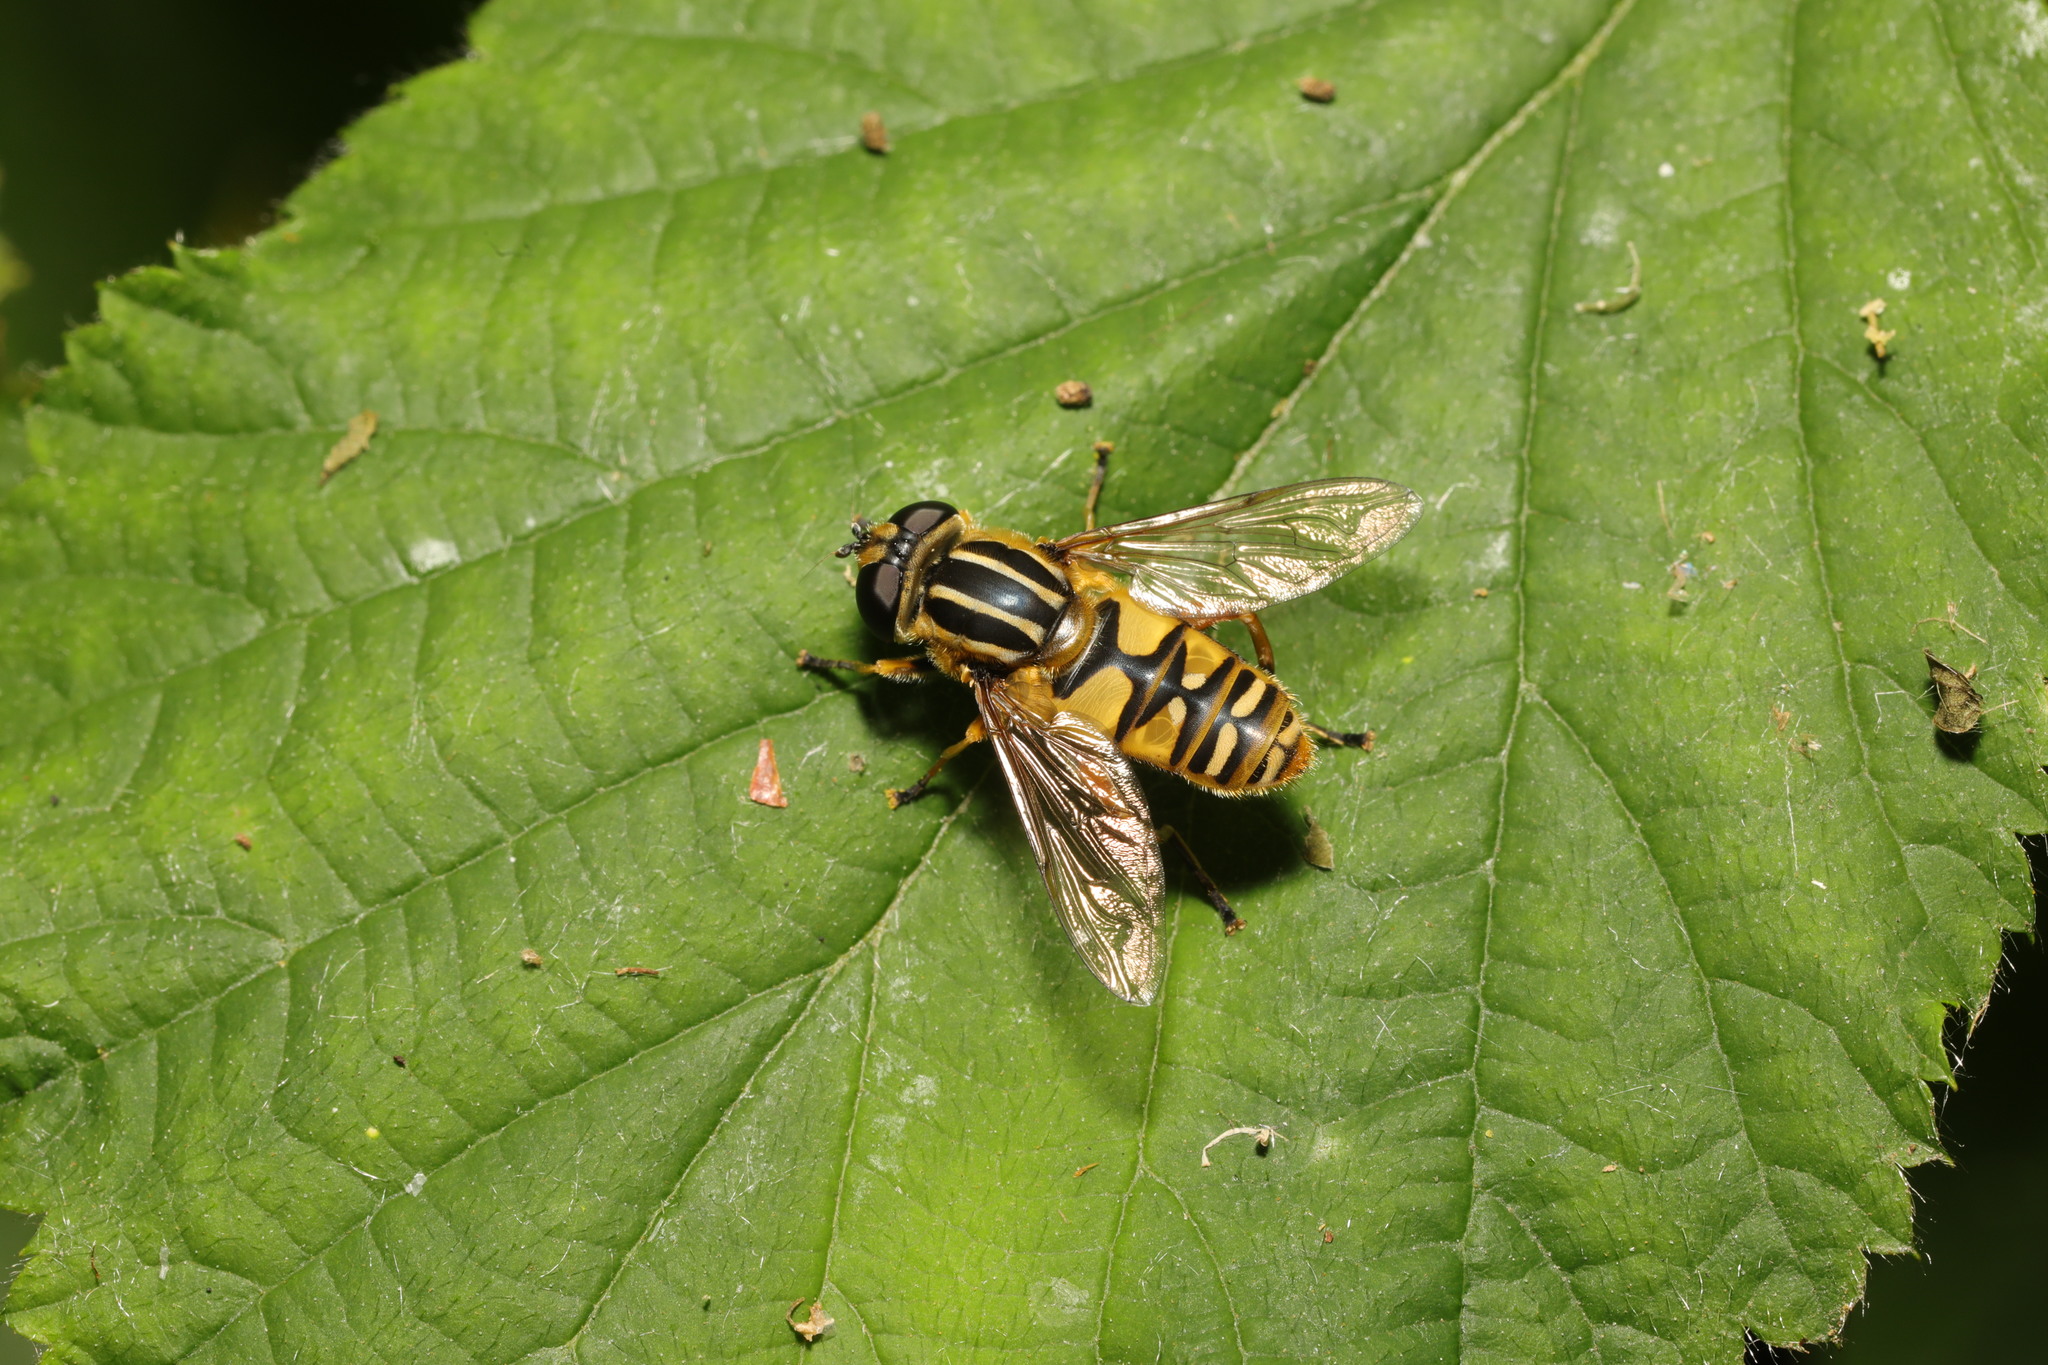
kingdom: Animalia
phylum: Arthropoda
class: Insecta
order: Diptera
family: Syrphidae
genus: Helophilus
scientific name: Helophilus pendulus
